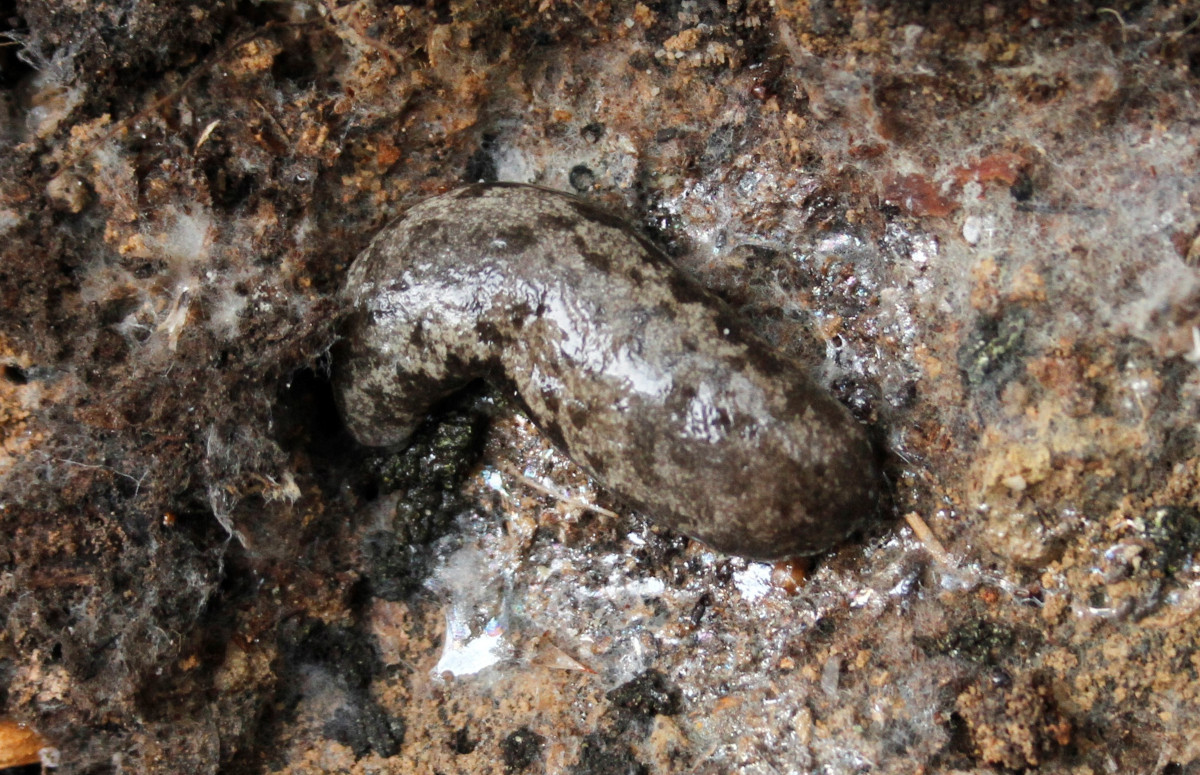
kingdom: Animalia
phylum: Mollusca
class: Gastropoda
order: Stylommatophora
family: Philomycidae
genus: Megapallifera
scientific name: Megapallifera mutabilis
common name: Changeable mantleslug
